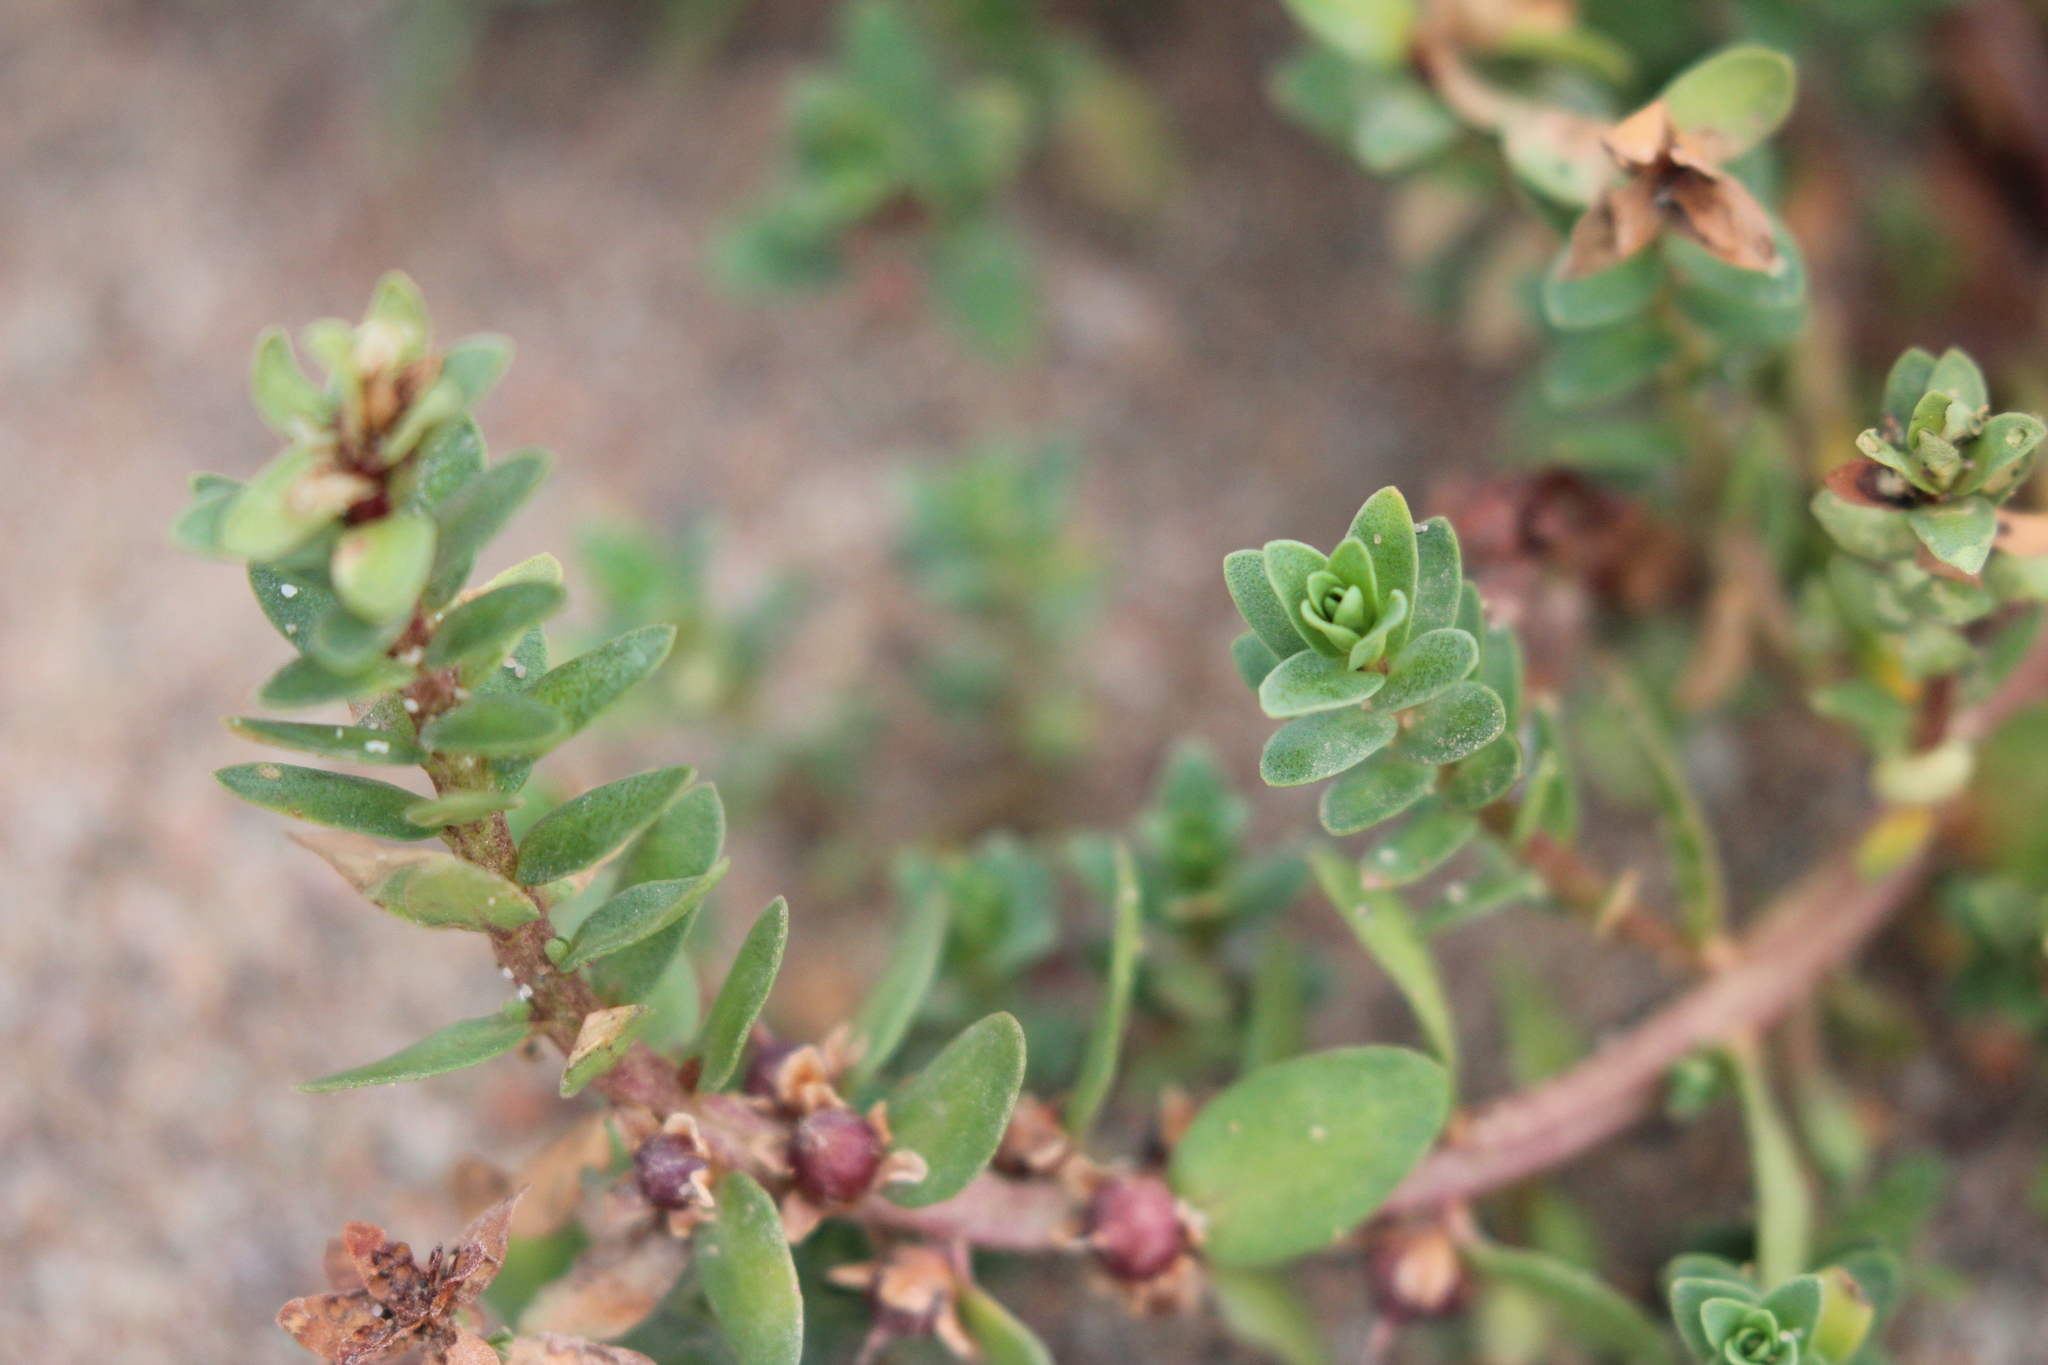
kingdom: Plantae
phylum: Tracheophyta
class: Magnoliopsida
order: Ericales
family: Primulaceae
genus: Lysimachia
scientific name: Lysimachia maritima
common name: Sea milkwort
